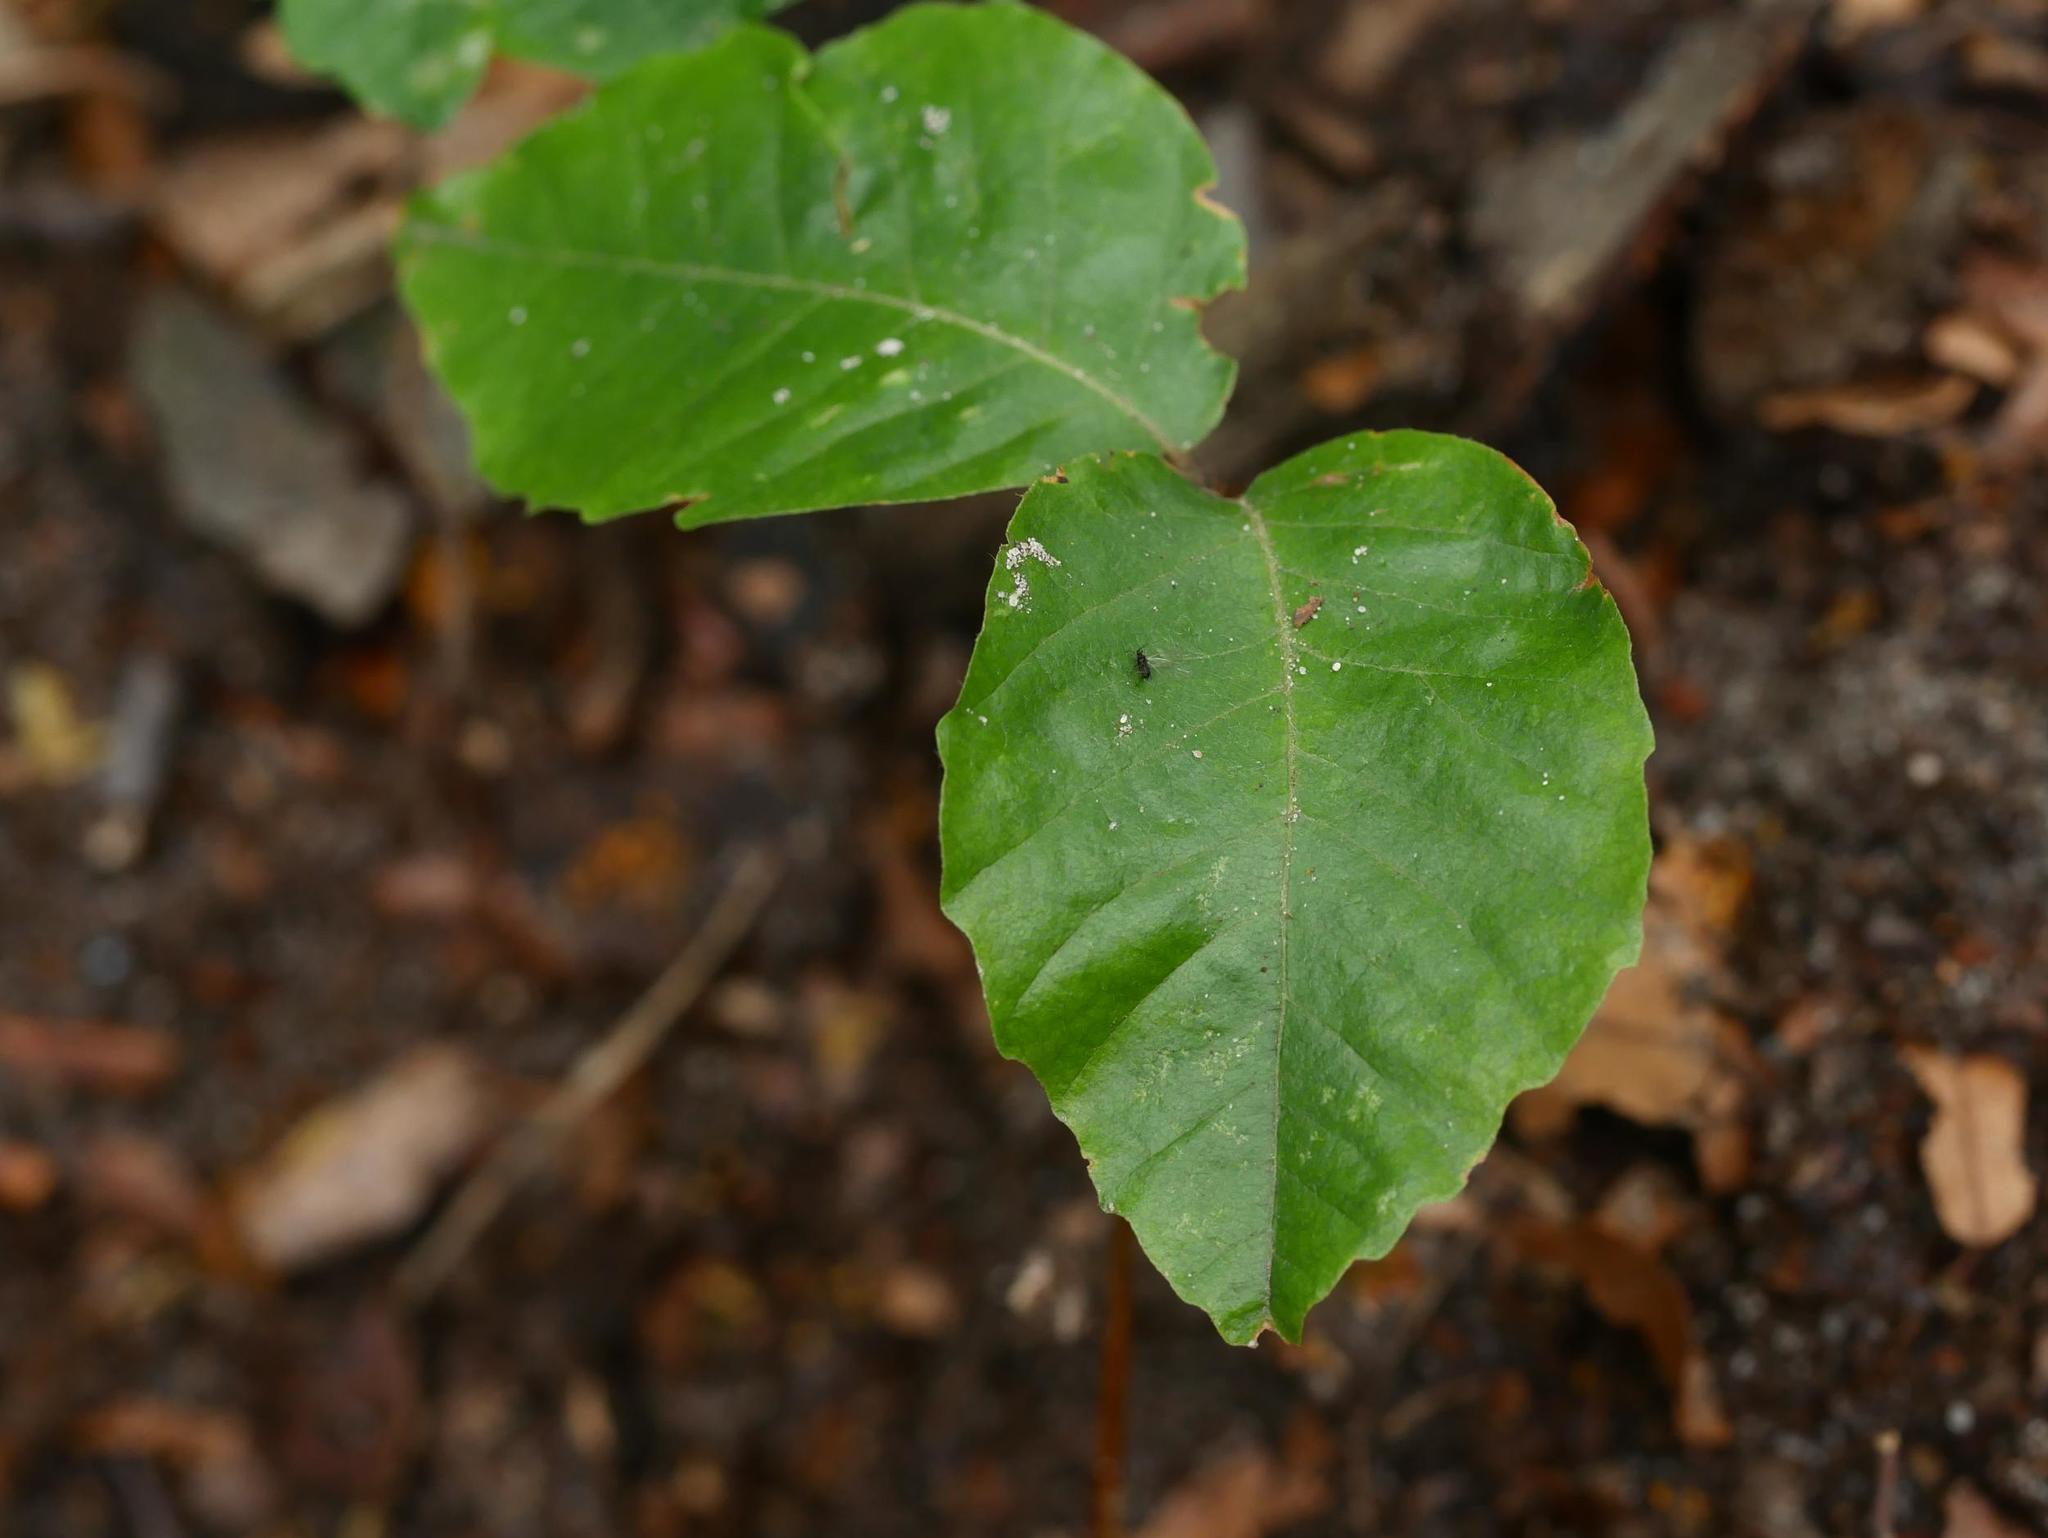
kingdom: Plantae
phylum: Tracheophyta
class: Magnoliopsida
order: Fagales
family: Fagaceae
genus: Fagus
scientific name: Fagus sylvatica
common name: Beech
